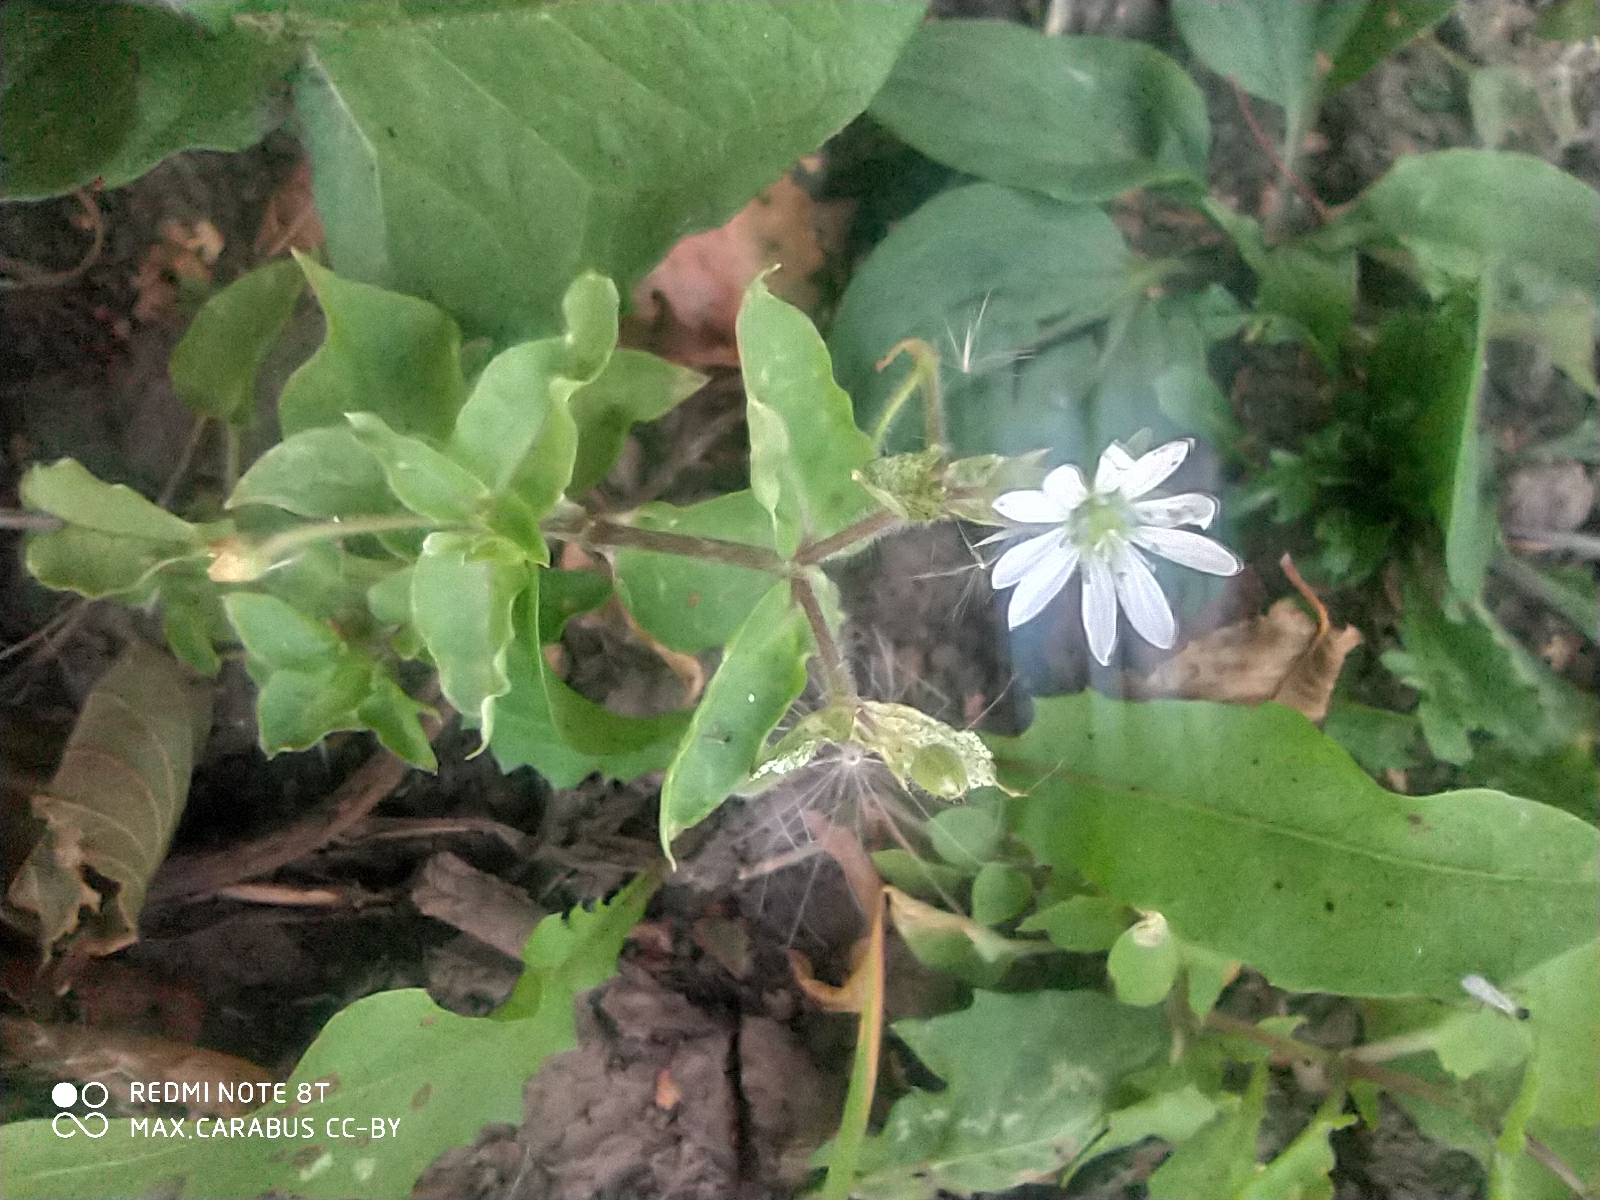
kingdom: Plantae
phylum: Tracheophyta
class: Magnoliopsida
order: Caryophyllales
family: Caryophyllaceae
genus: Stellaria
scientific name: Stellaria aquatica
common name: Water chickweed
